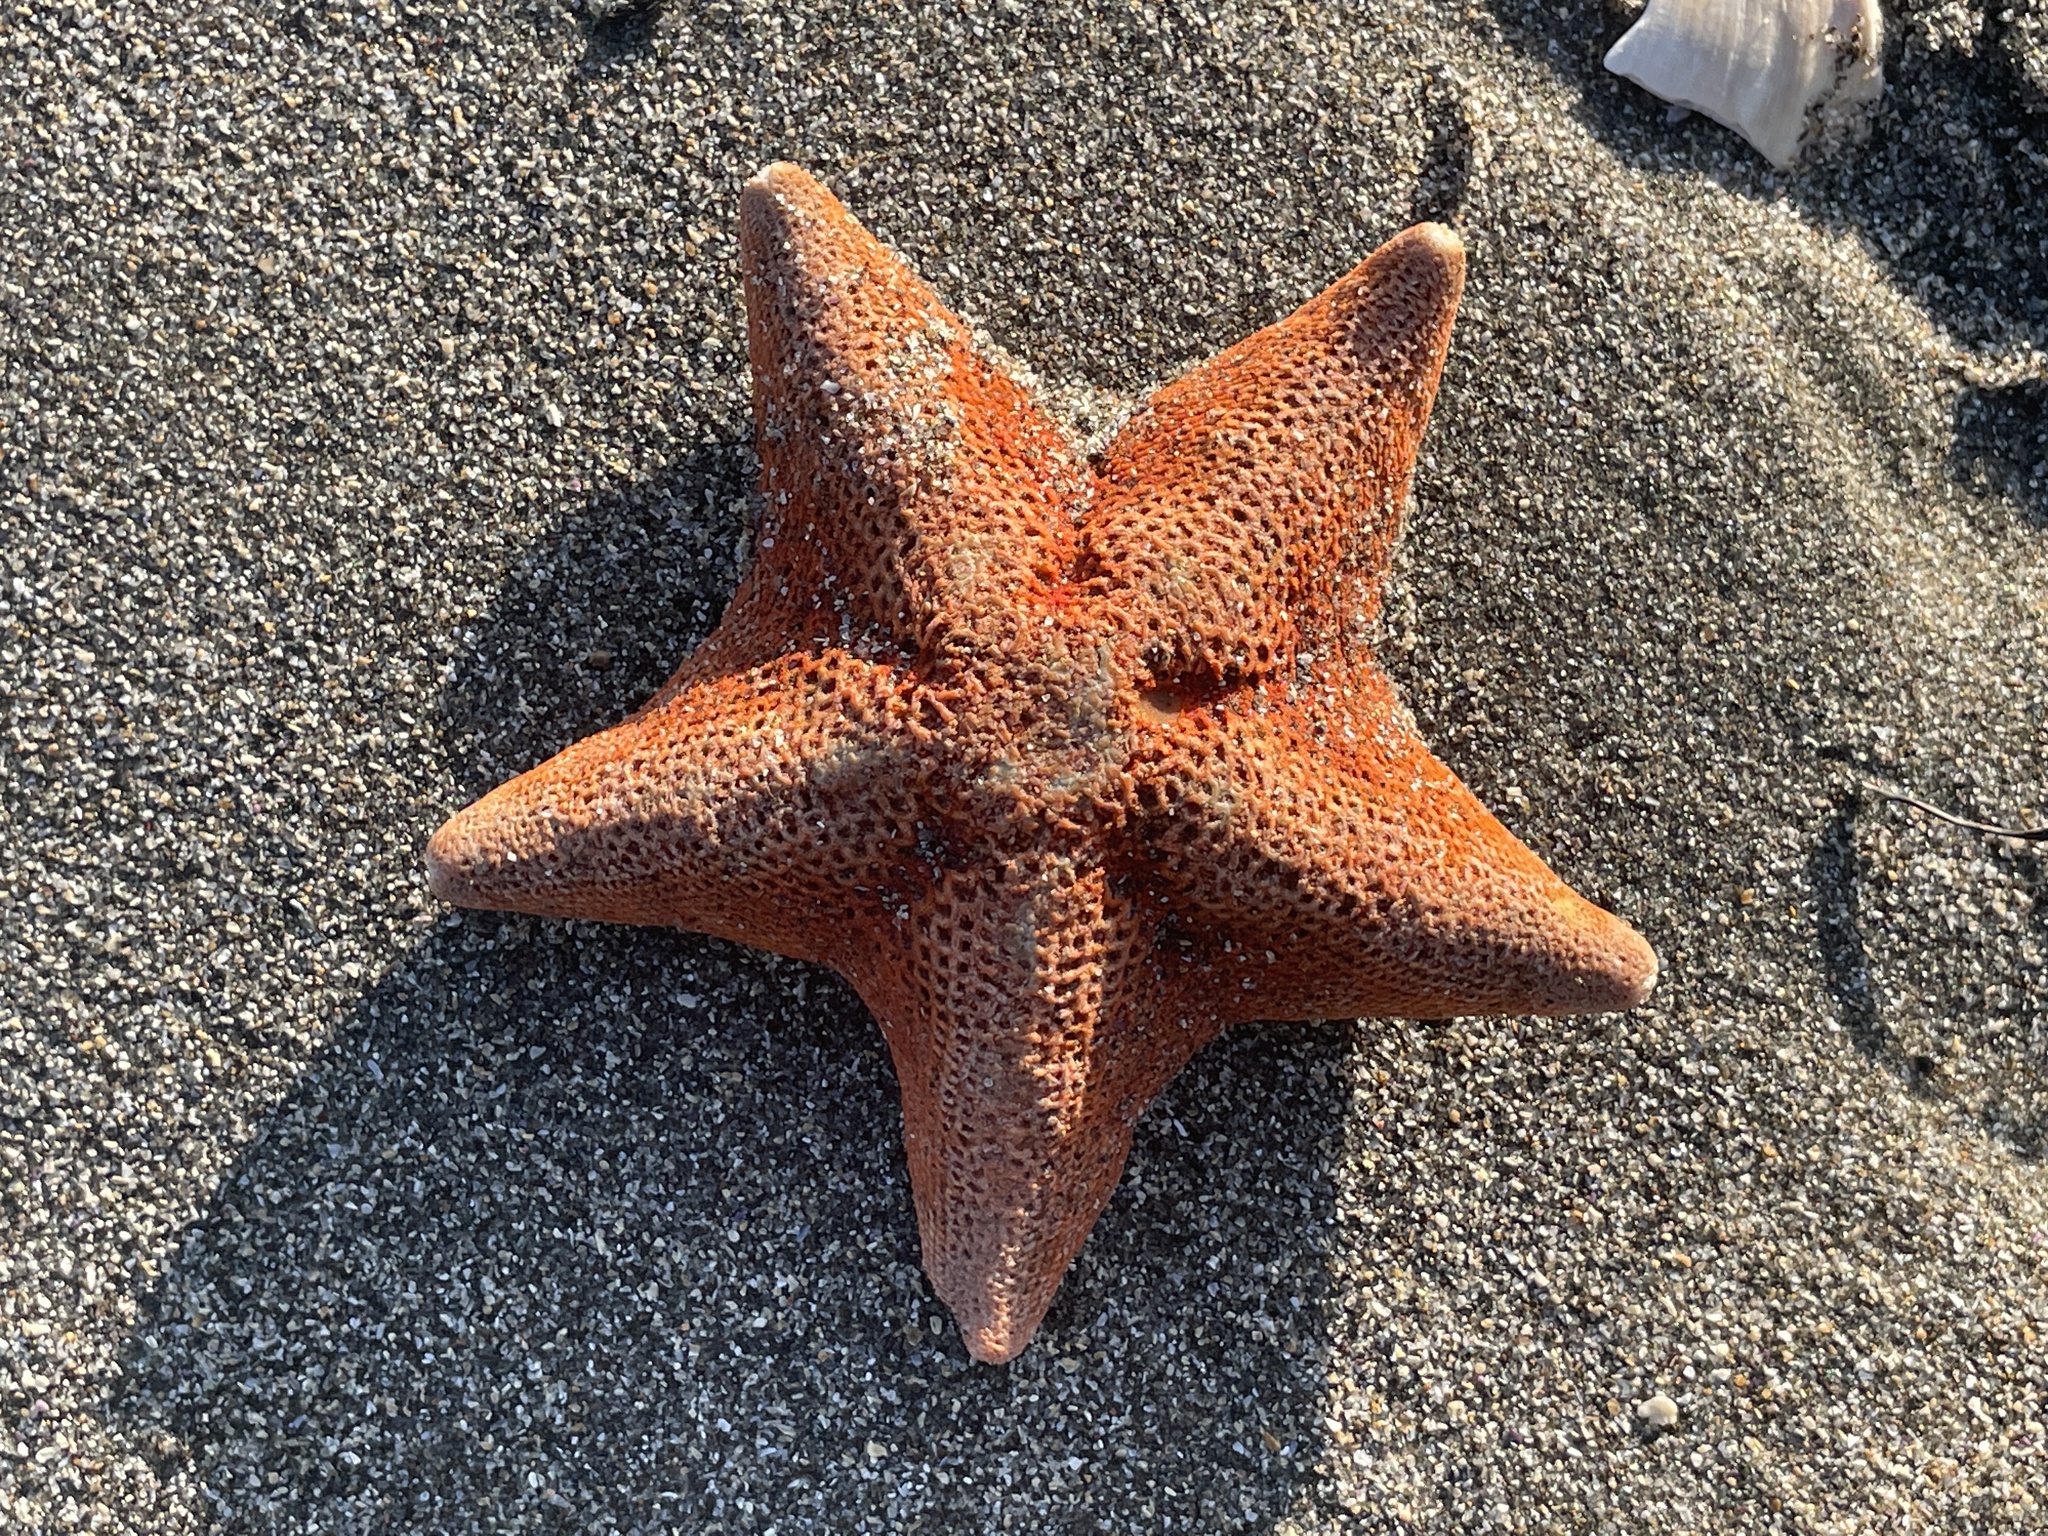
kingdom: Animalia
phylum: Echinodermata
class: Asteroidea
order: Valvatida
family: Asterinidae
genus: Patiria
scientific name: Patiria miniata
